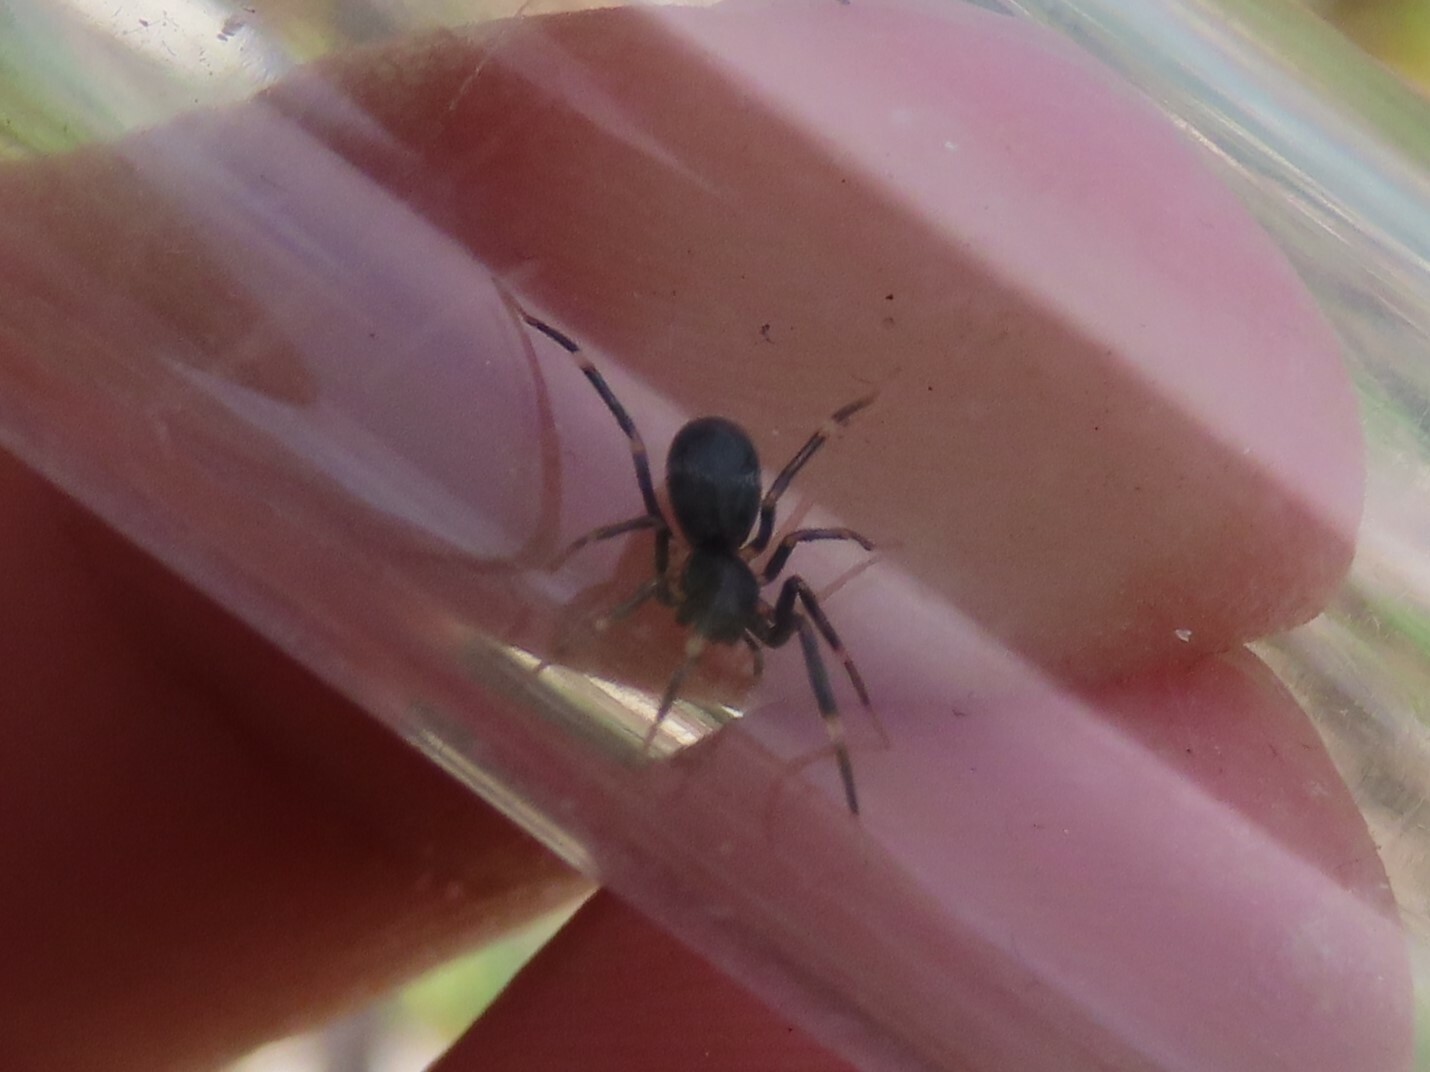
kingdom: Animalia
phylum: Arthropoda
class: Arachnida
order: Araneae
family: Phrurolithidae
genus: Liophrurillus
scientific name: Liophrurillus flavitarsis
